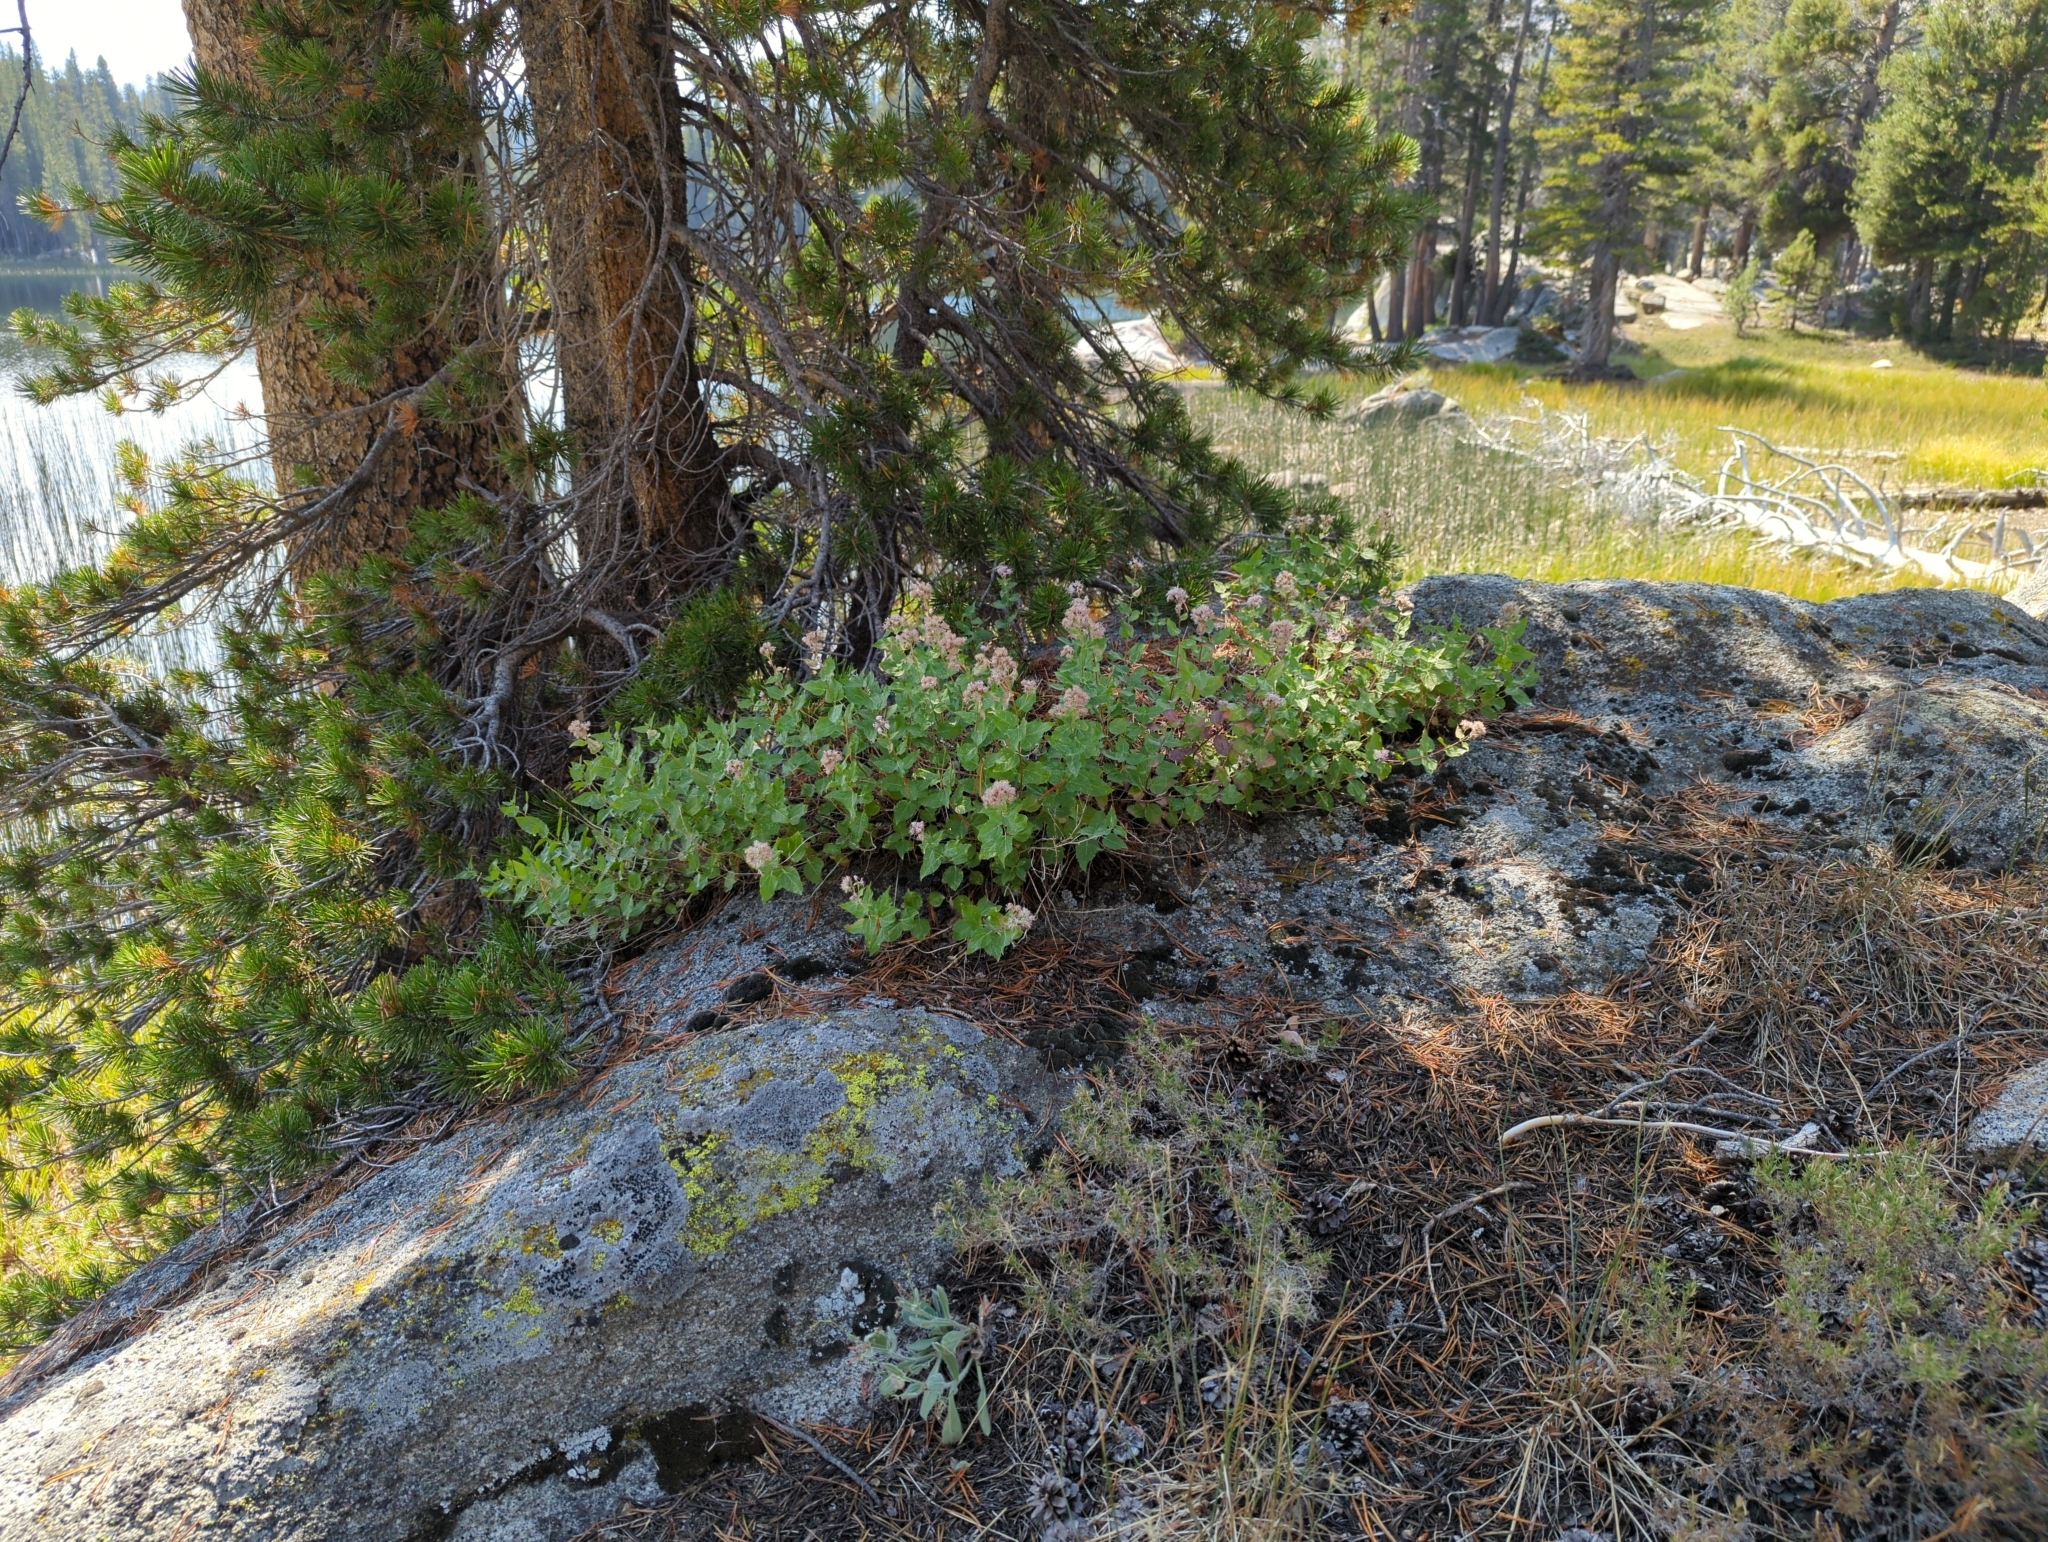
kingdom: Plantae
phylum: Tracheophyta
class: Magnoliopsida
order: Asterales
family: Asteraceae
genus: Ageratina
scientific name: Ageratina occidentalis
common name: Western snakeroot
